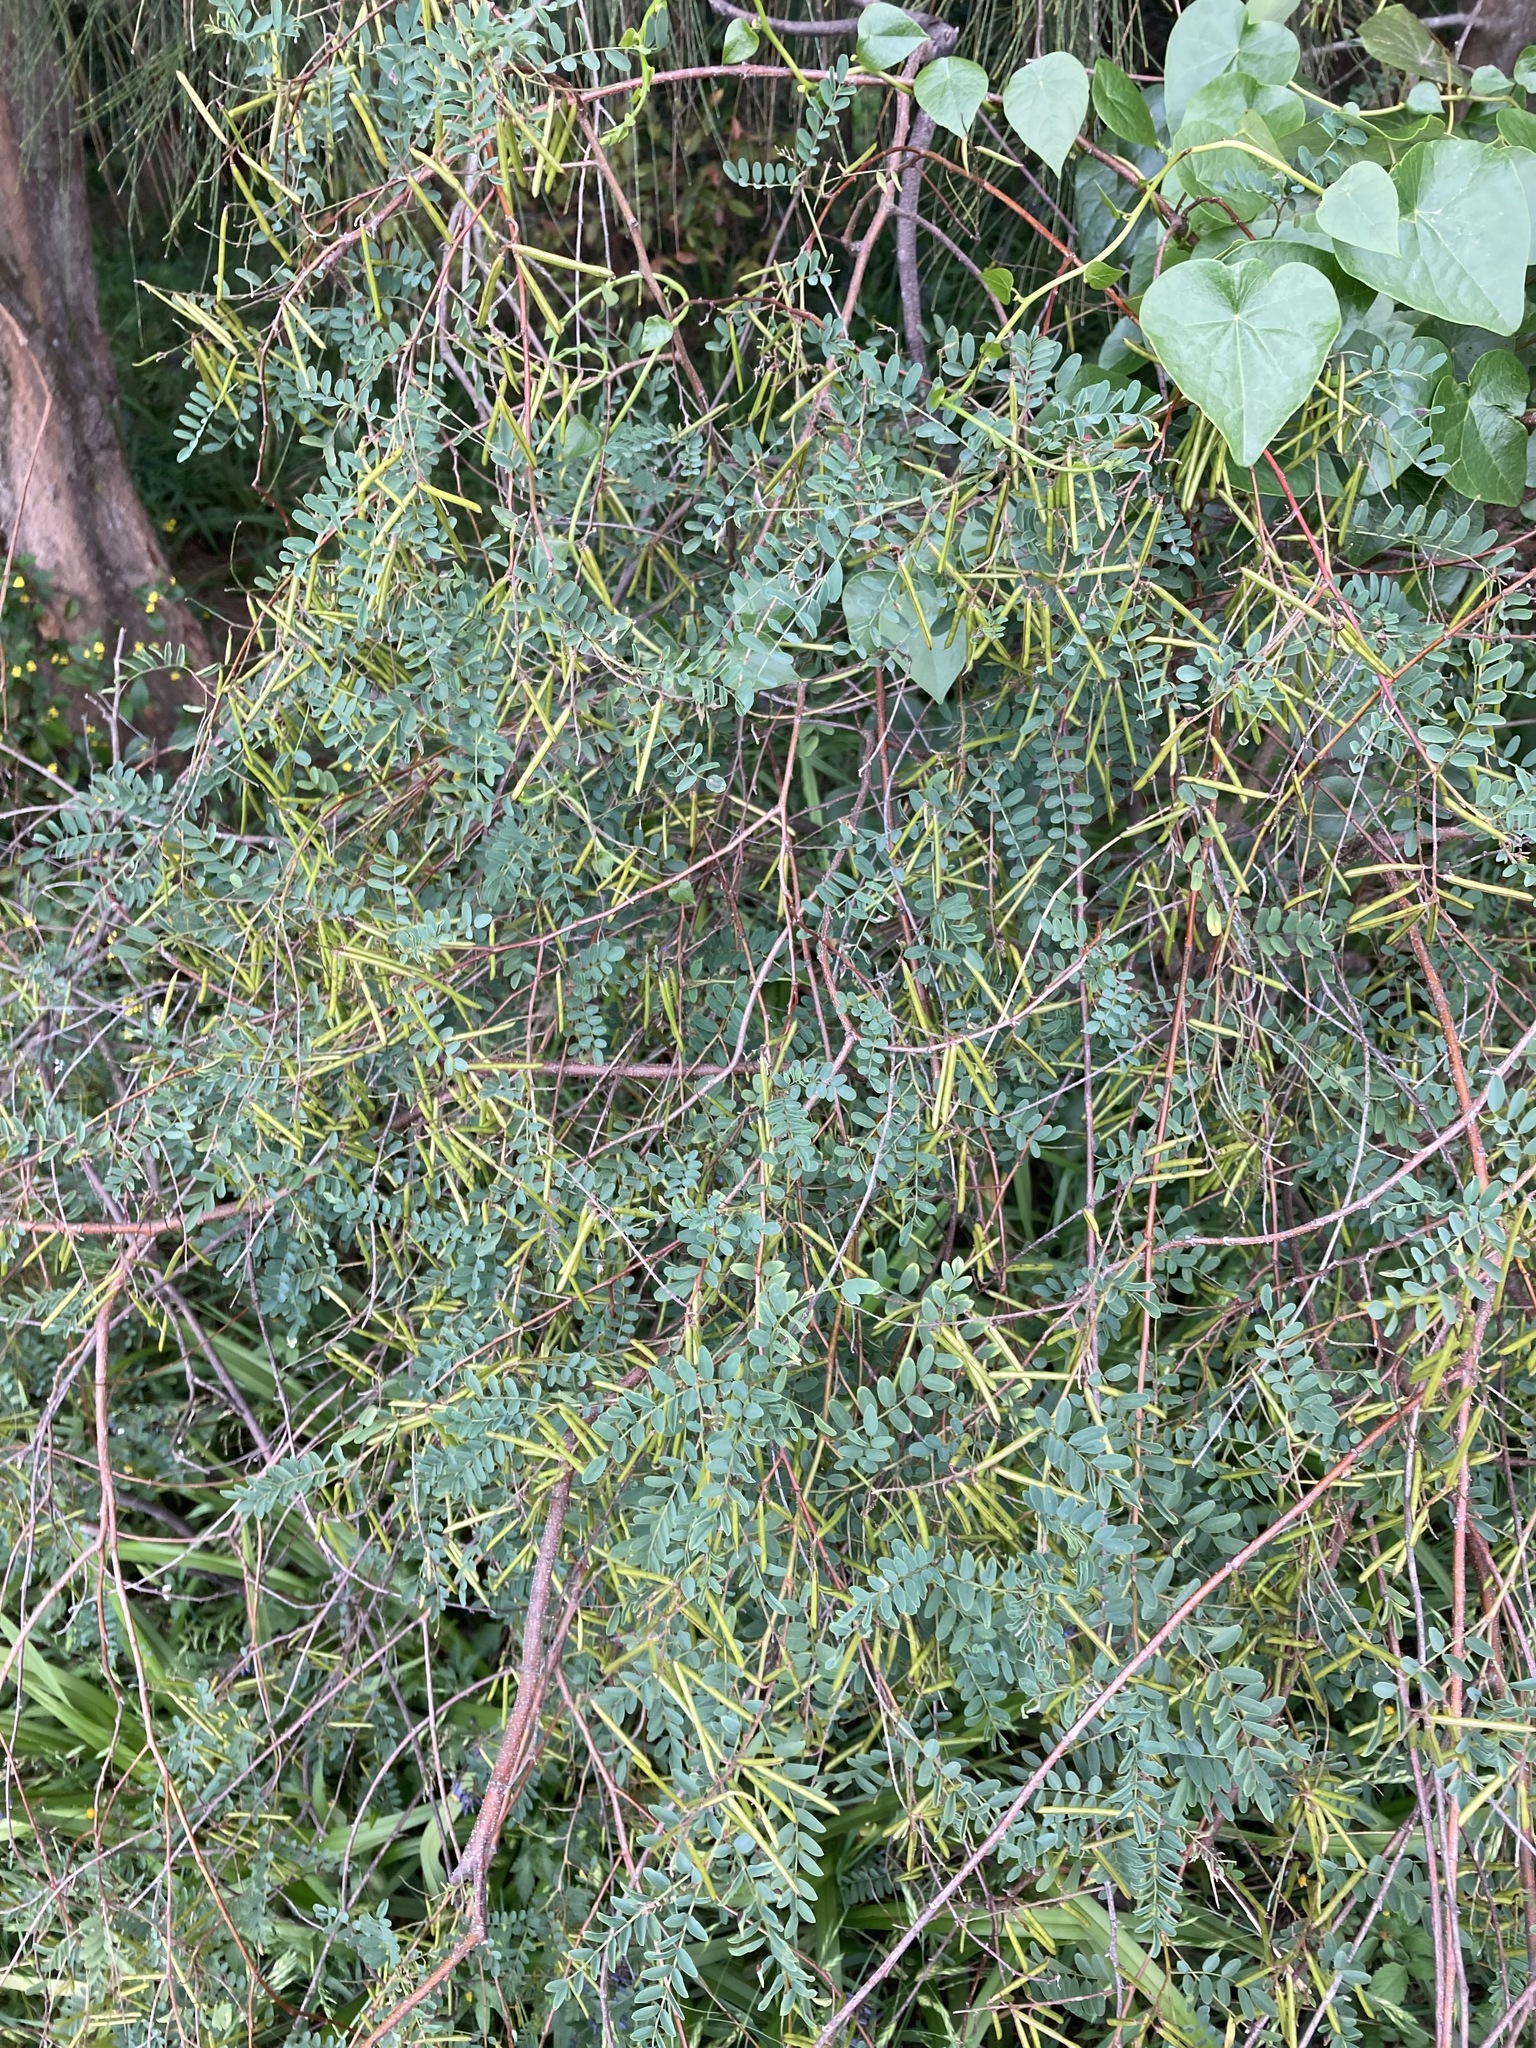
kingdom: Plantae
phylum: Tracheophyta
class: Magnoliopsida
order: Fabales
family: Fabaceae
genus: Indigofera
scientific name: Indigofera australis
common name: Australian indigo
